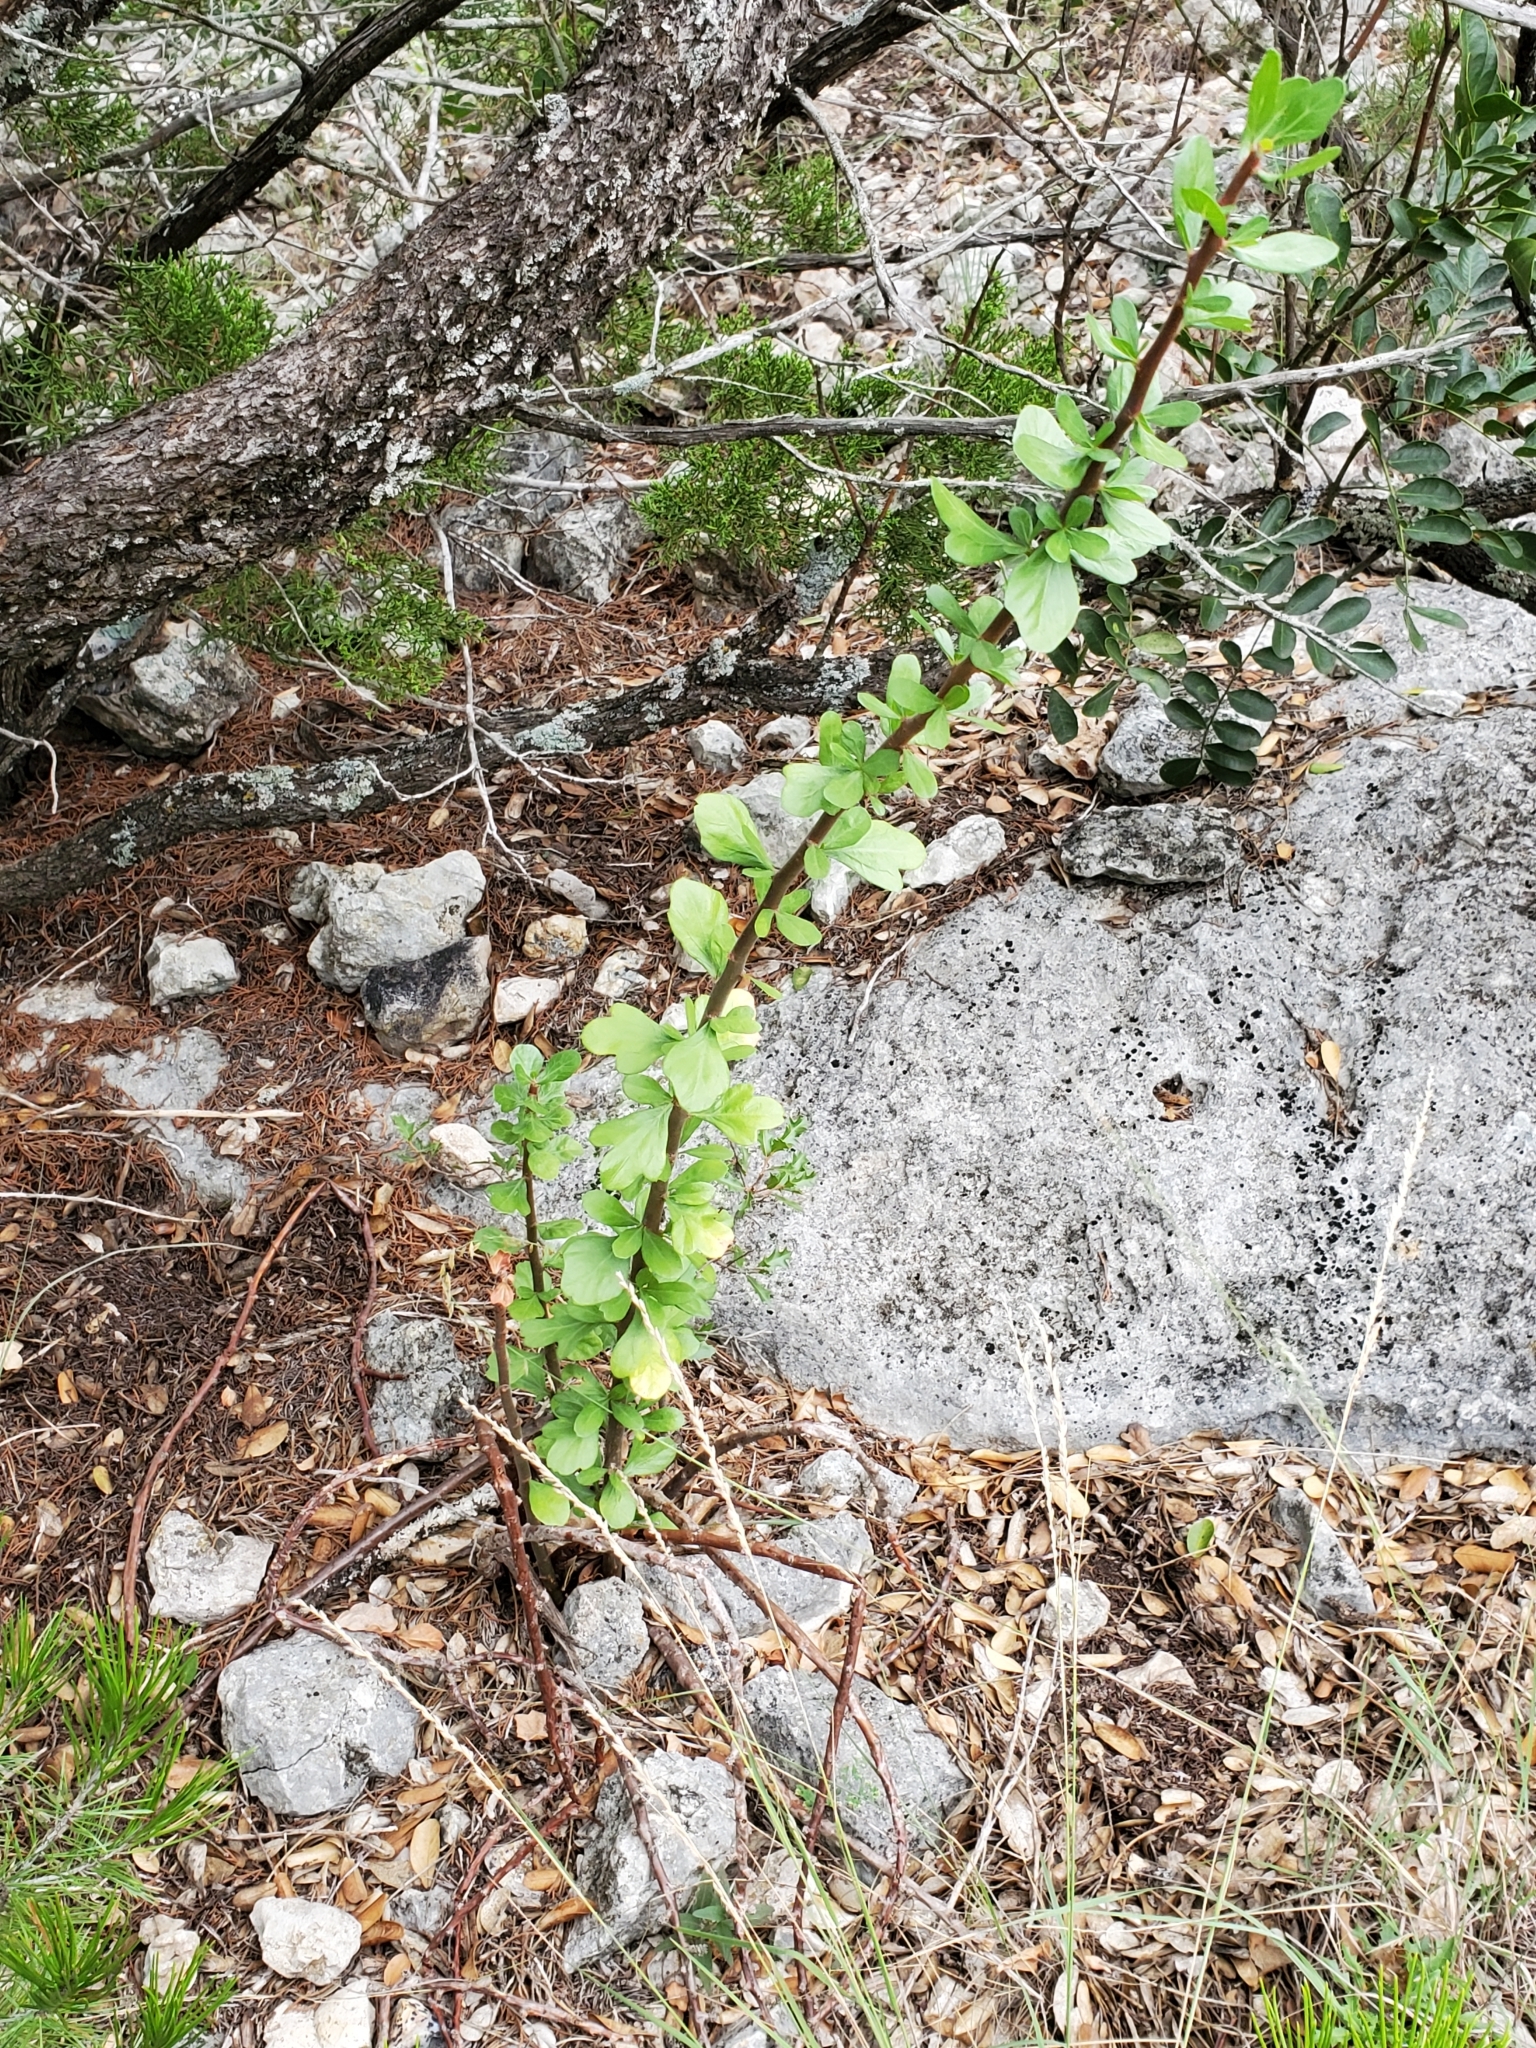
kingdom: Plantae
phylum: Tracheophyta
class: Magnoliopsida
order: Malpighiales
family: Euphorbiaceae
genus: Jatropha
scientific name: Jatropha dioica
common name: Leatherstem
